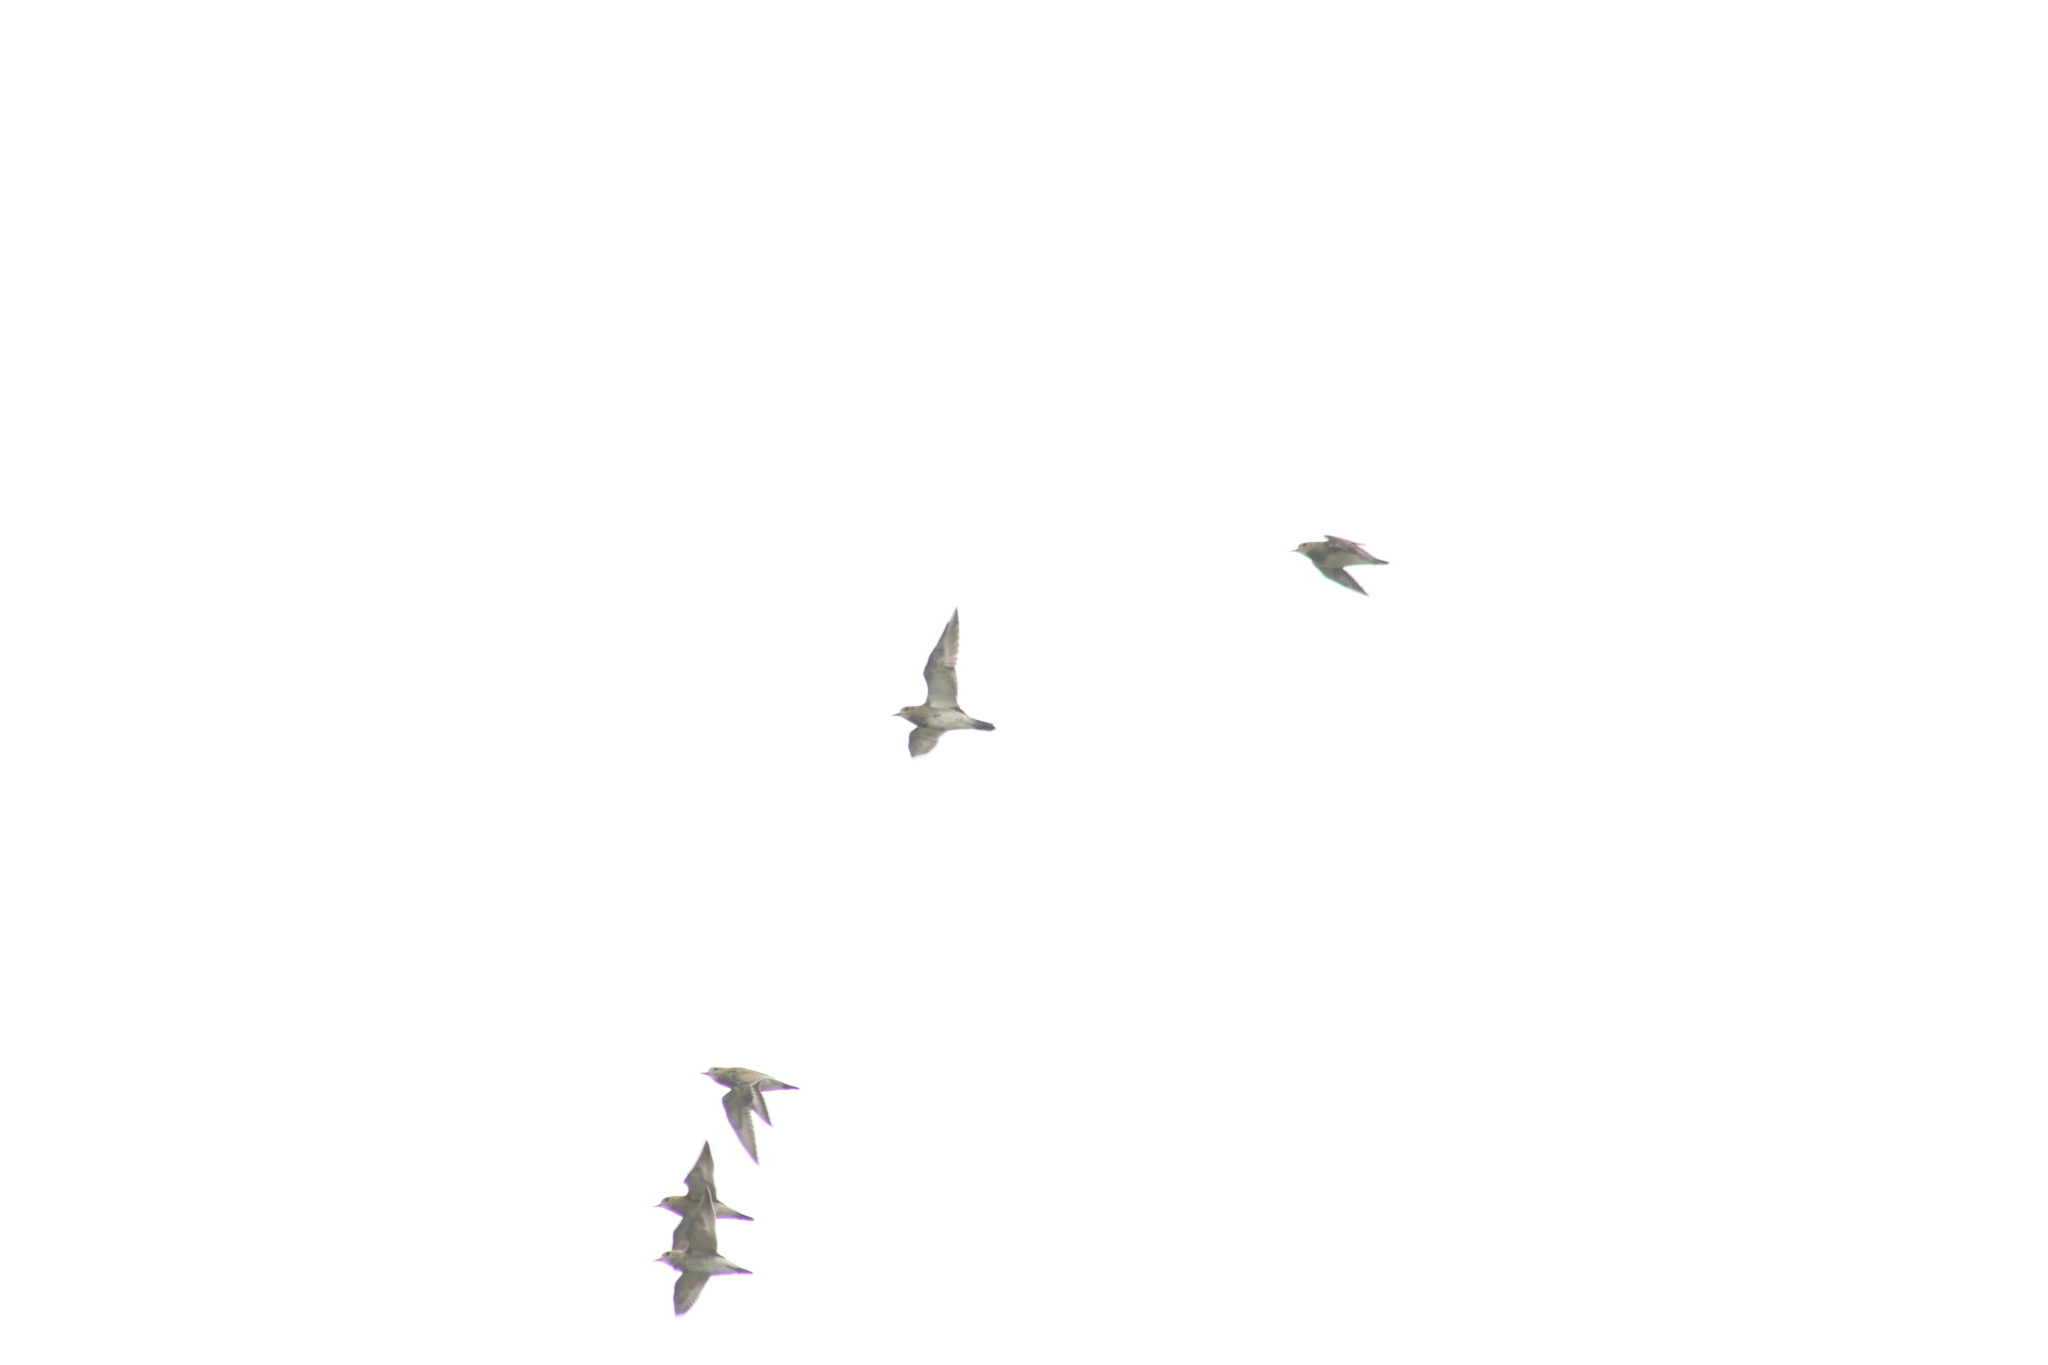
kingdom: Animalia
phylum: Chordata
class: Aves
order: Charadriiformes
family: Charadriidae
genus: Pluvialis
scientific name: Pluvialis apricaria
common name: European golden plover
